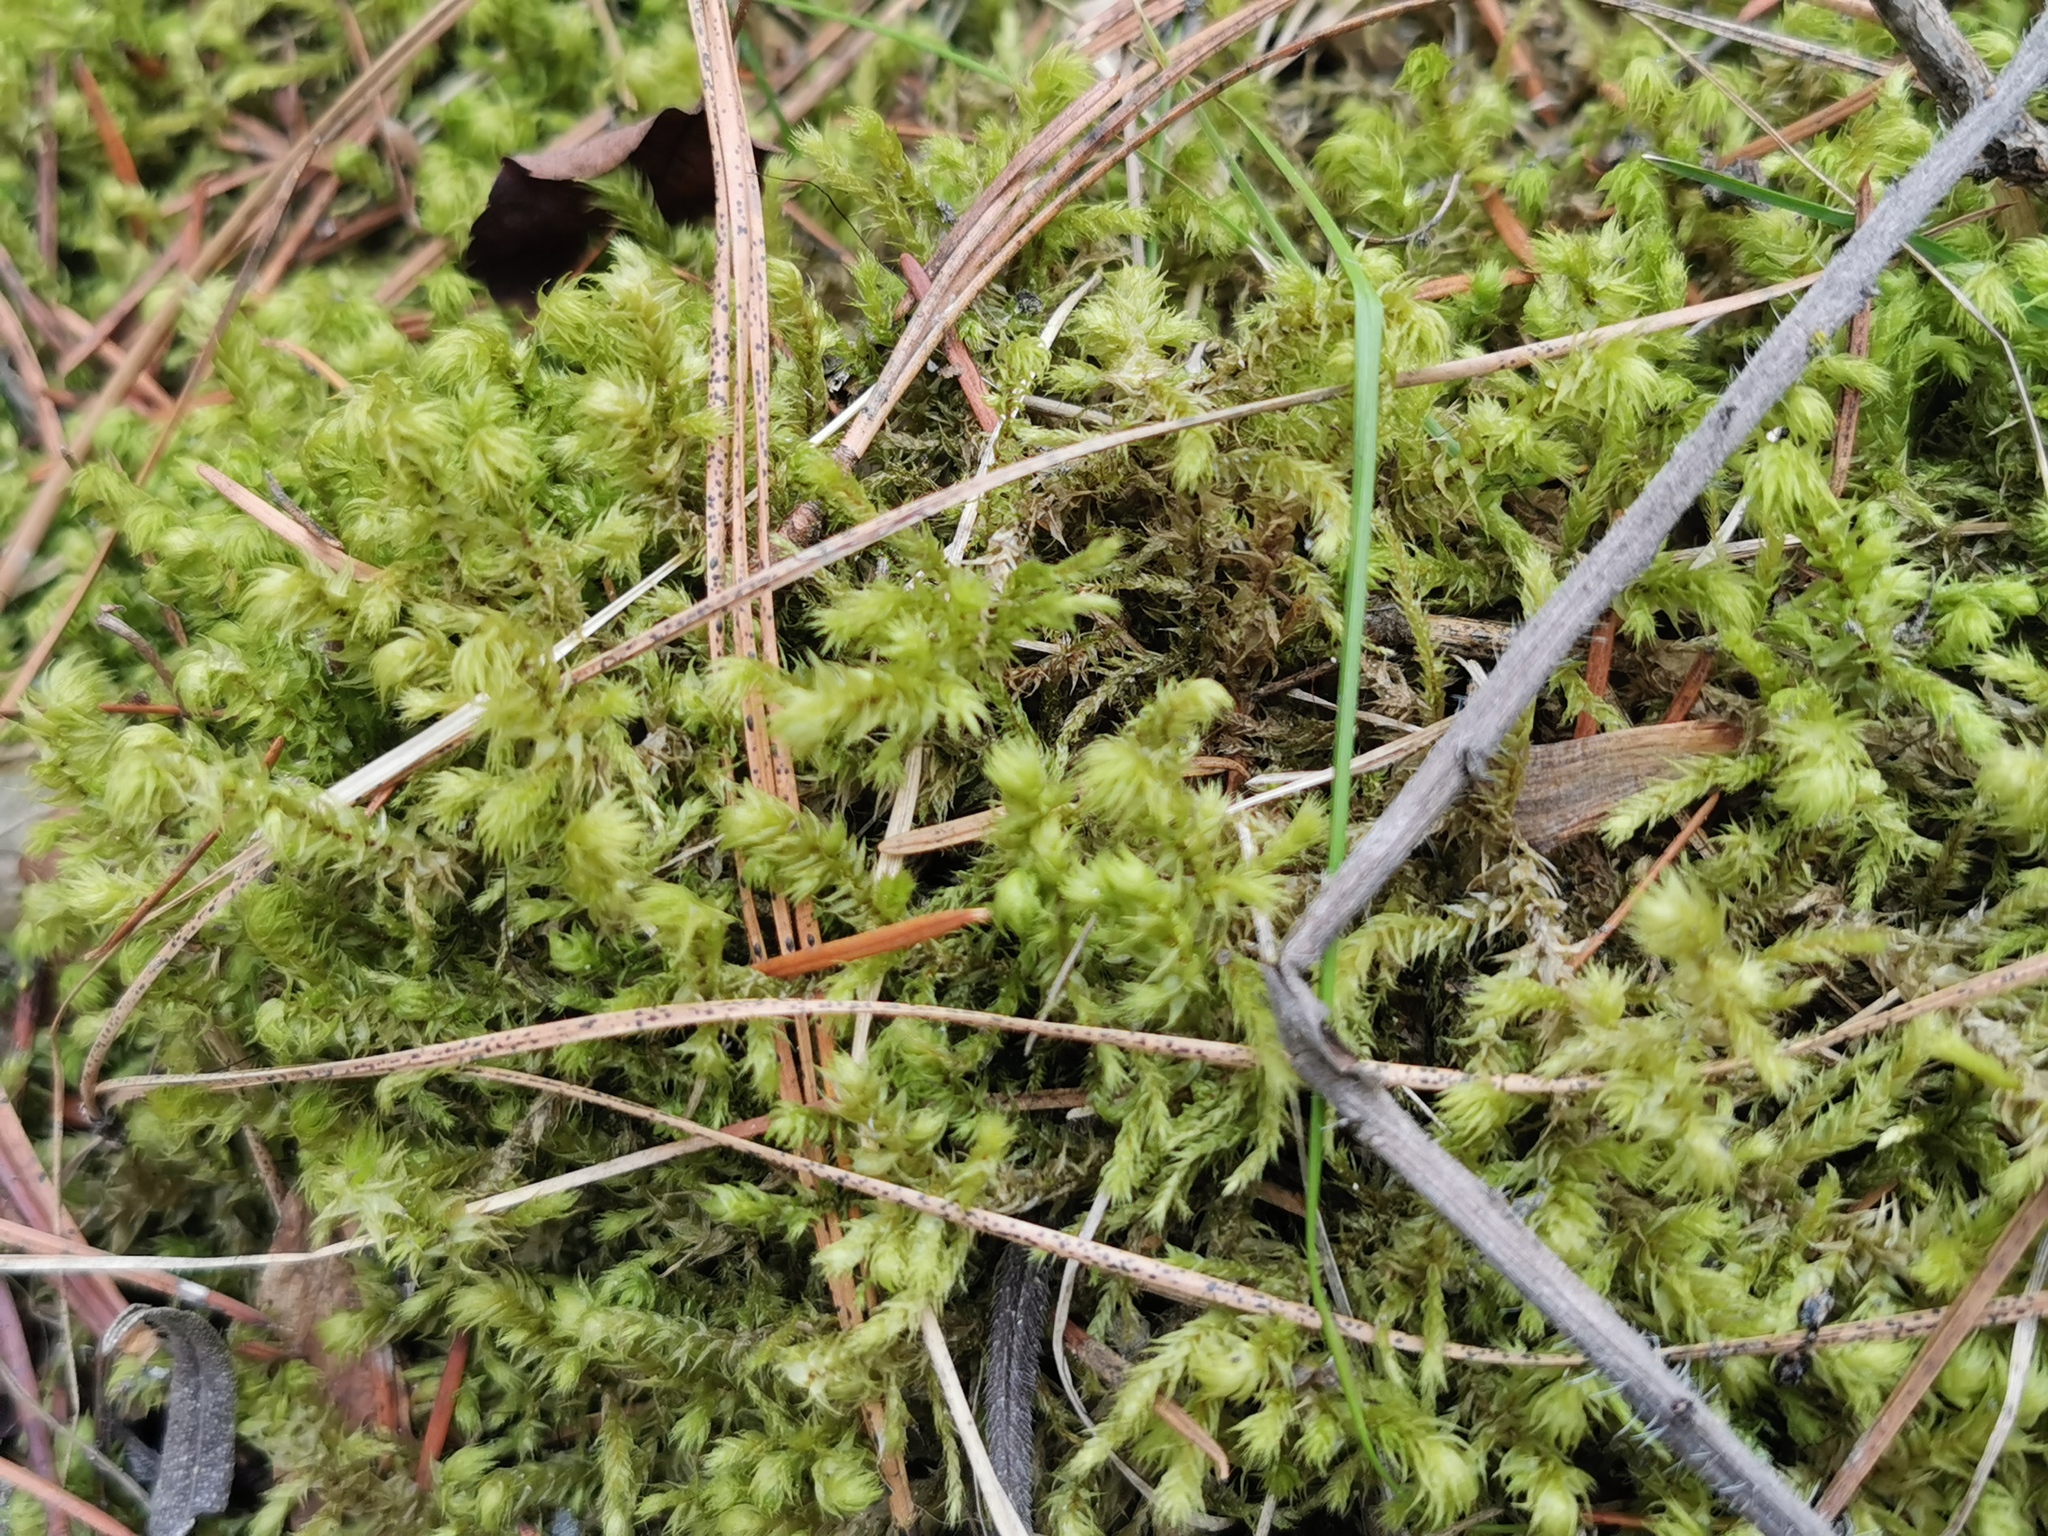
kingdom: Plantae
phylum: Bryophyta
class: Bryopsida
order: Hypnales
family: Hylocomiaceae
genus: Hylocomiadelphus
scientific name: Hylocomiadelphus triquetrus
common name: Rough goose neck moss
